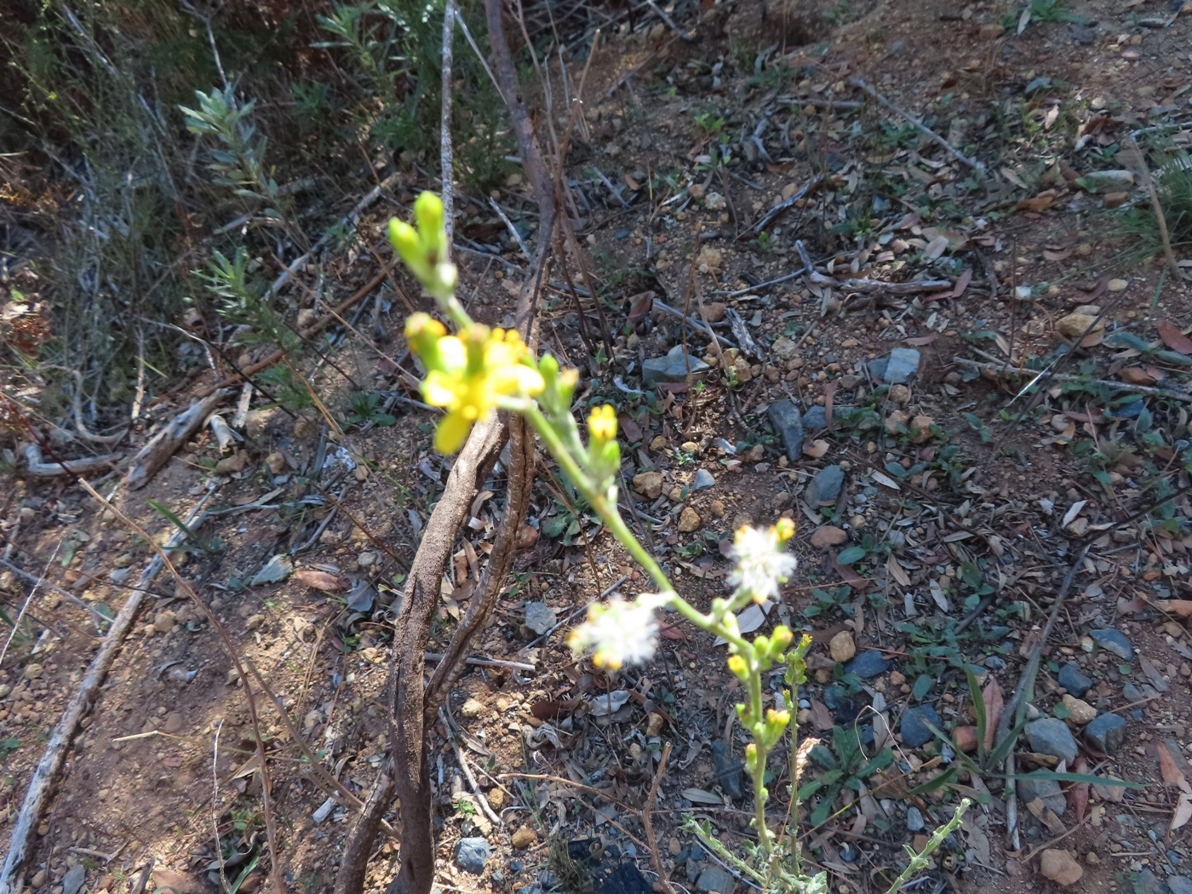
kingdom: Plantae
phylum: Tracheophyta
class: Magnoliopsida
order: Asterales
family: Asteraceae
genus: Senecio
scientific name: Senecio pubigerus
